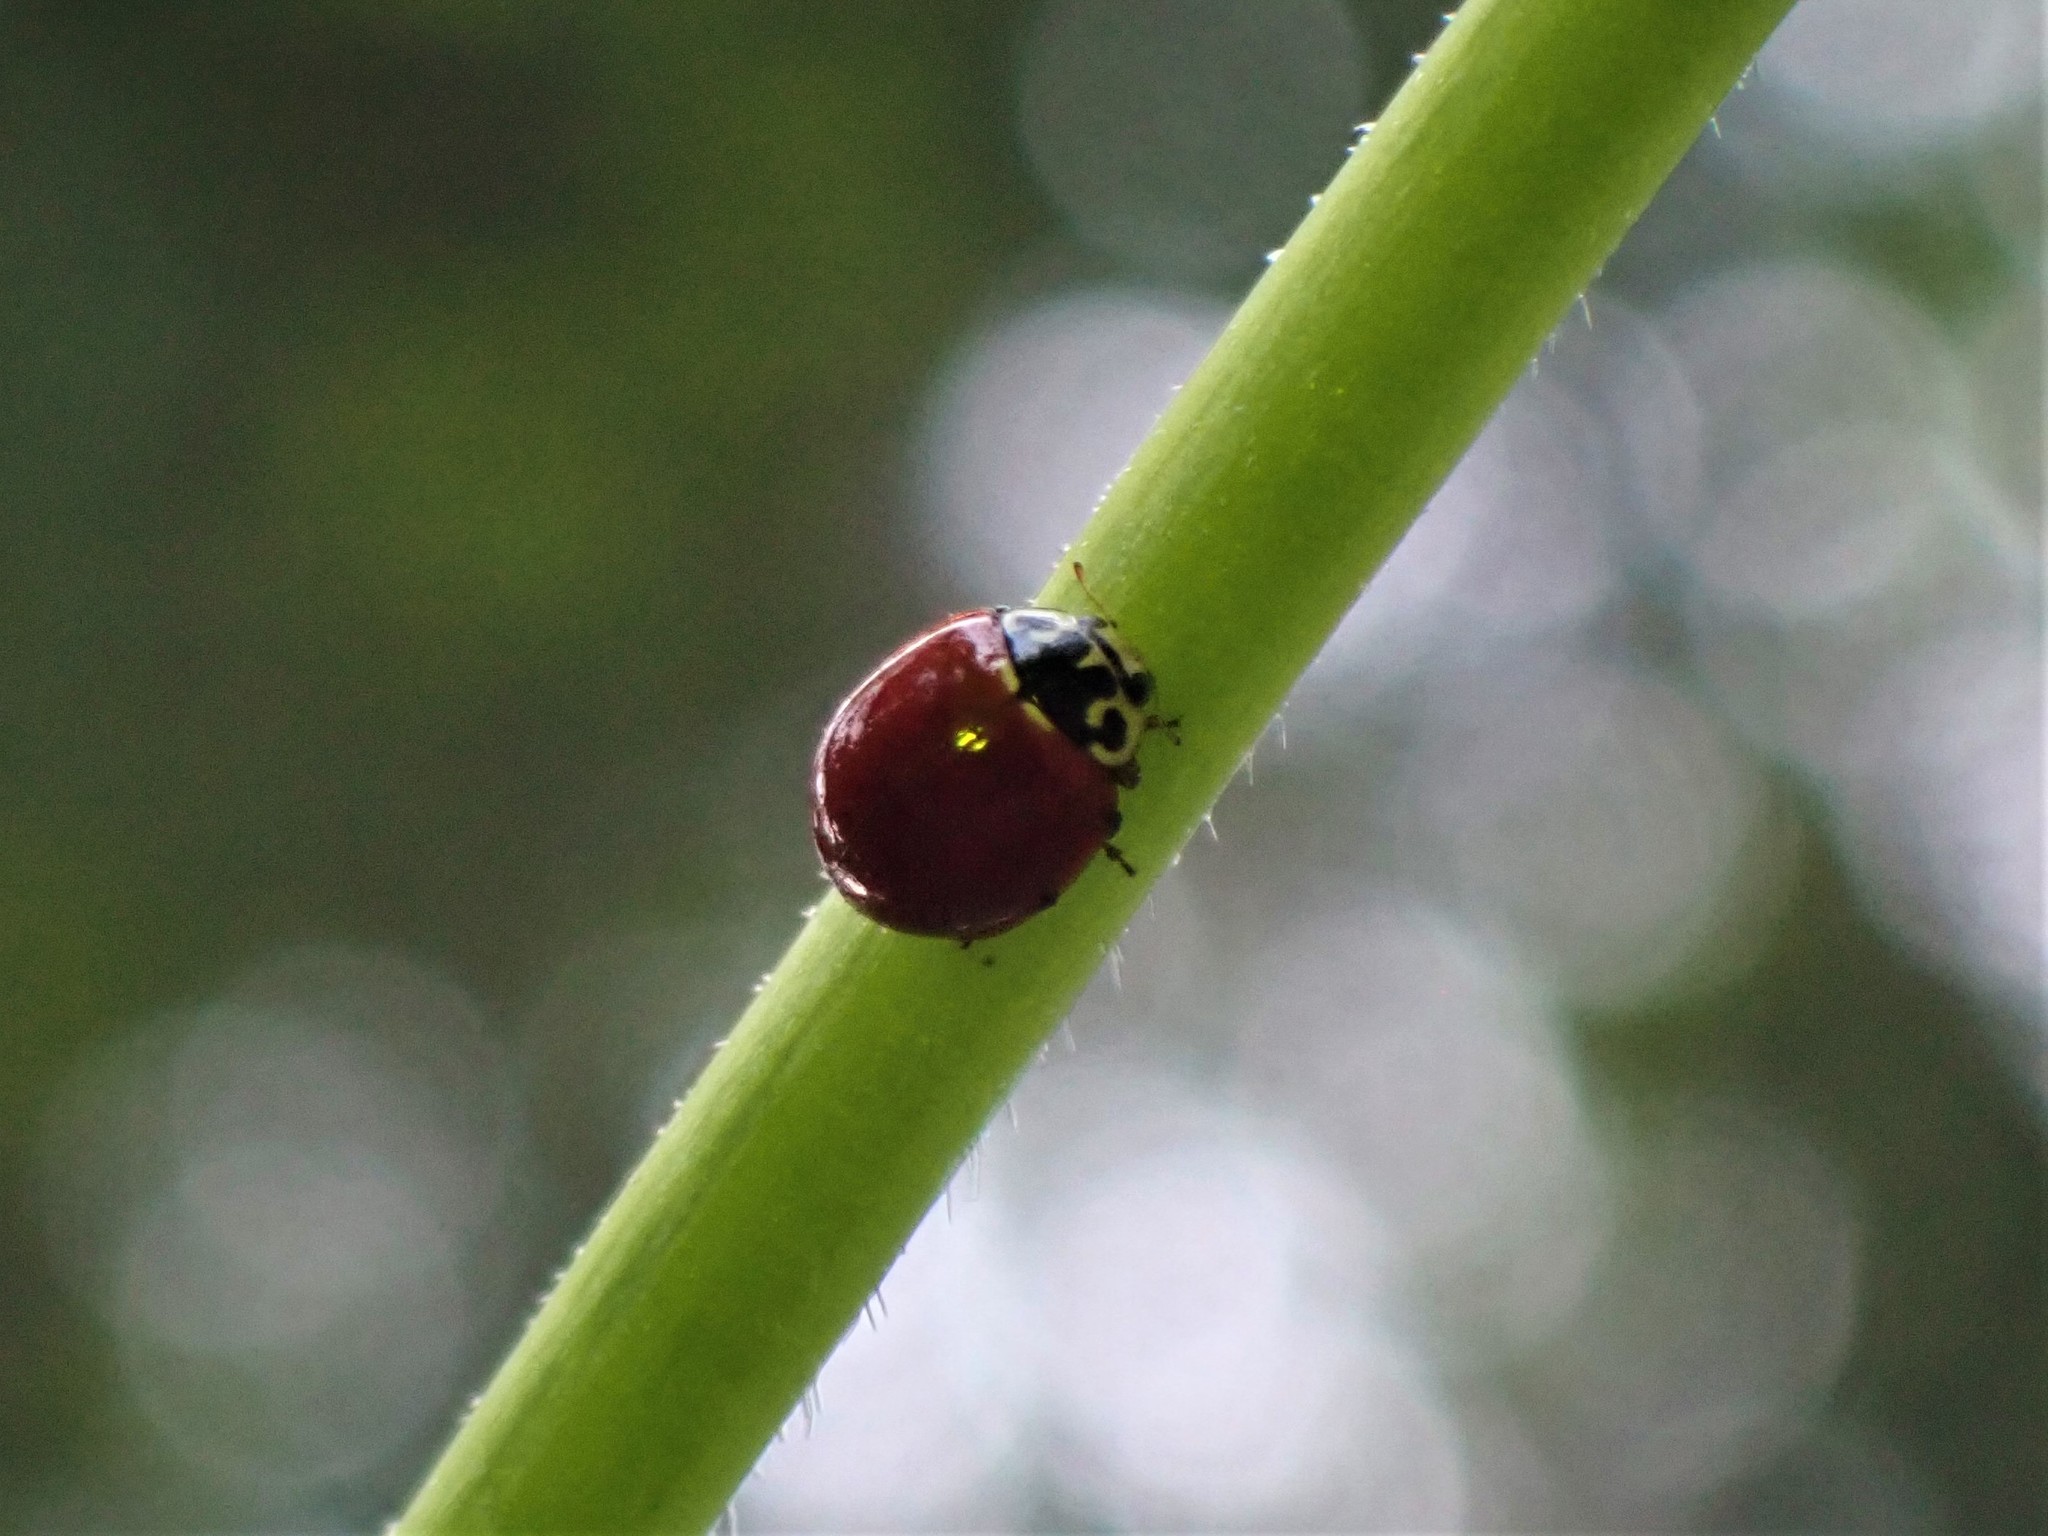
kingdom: Animalia
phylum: Arthropoda
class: Insecta
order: Coleoptera
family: Coccinellidae
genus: Cycloneda
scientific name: Cycloneda polita
